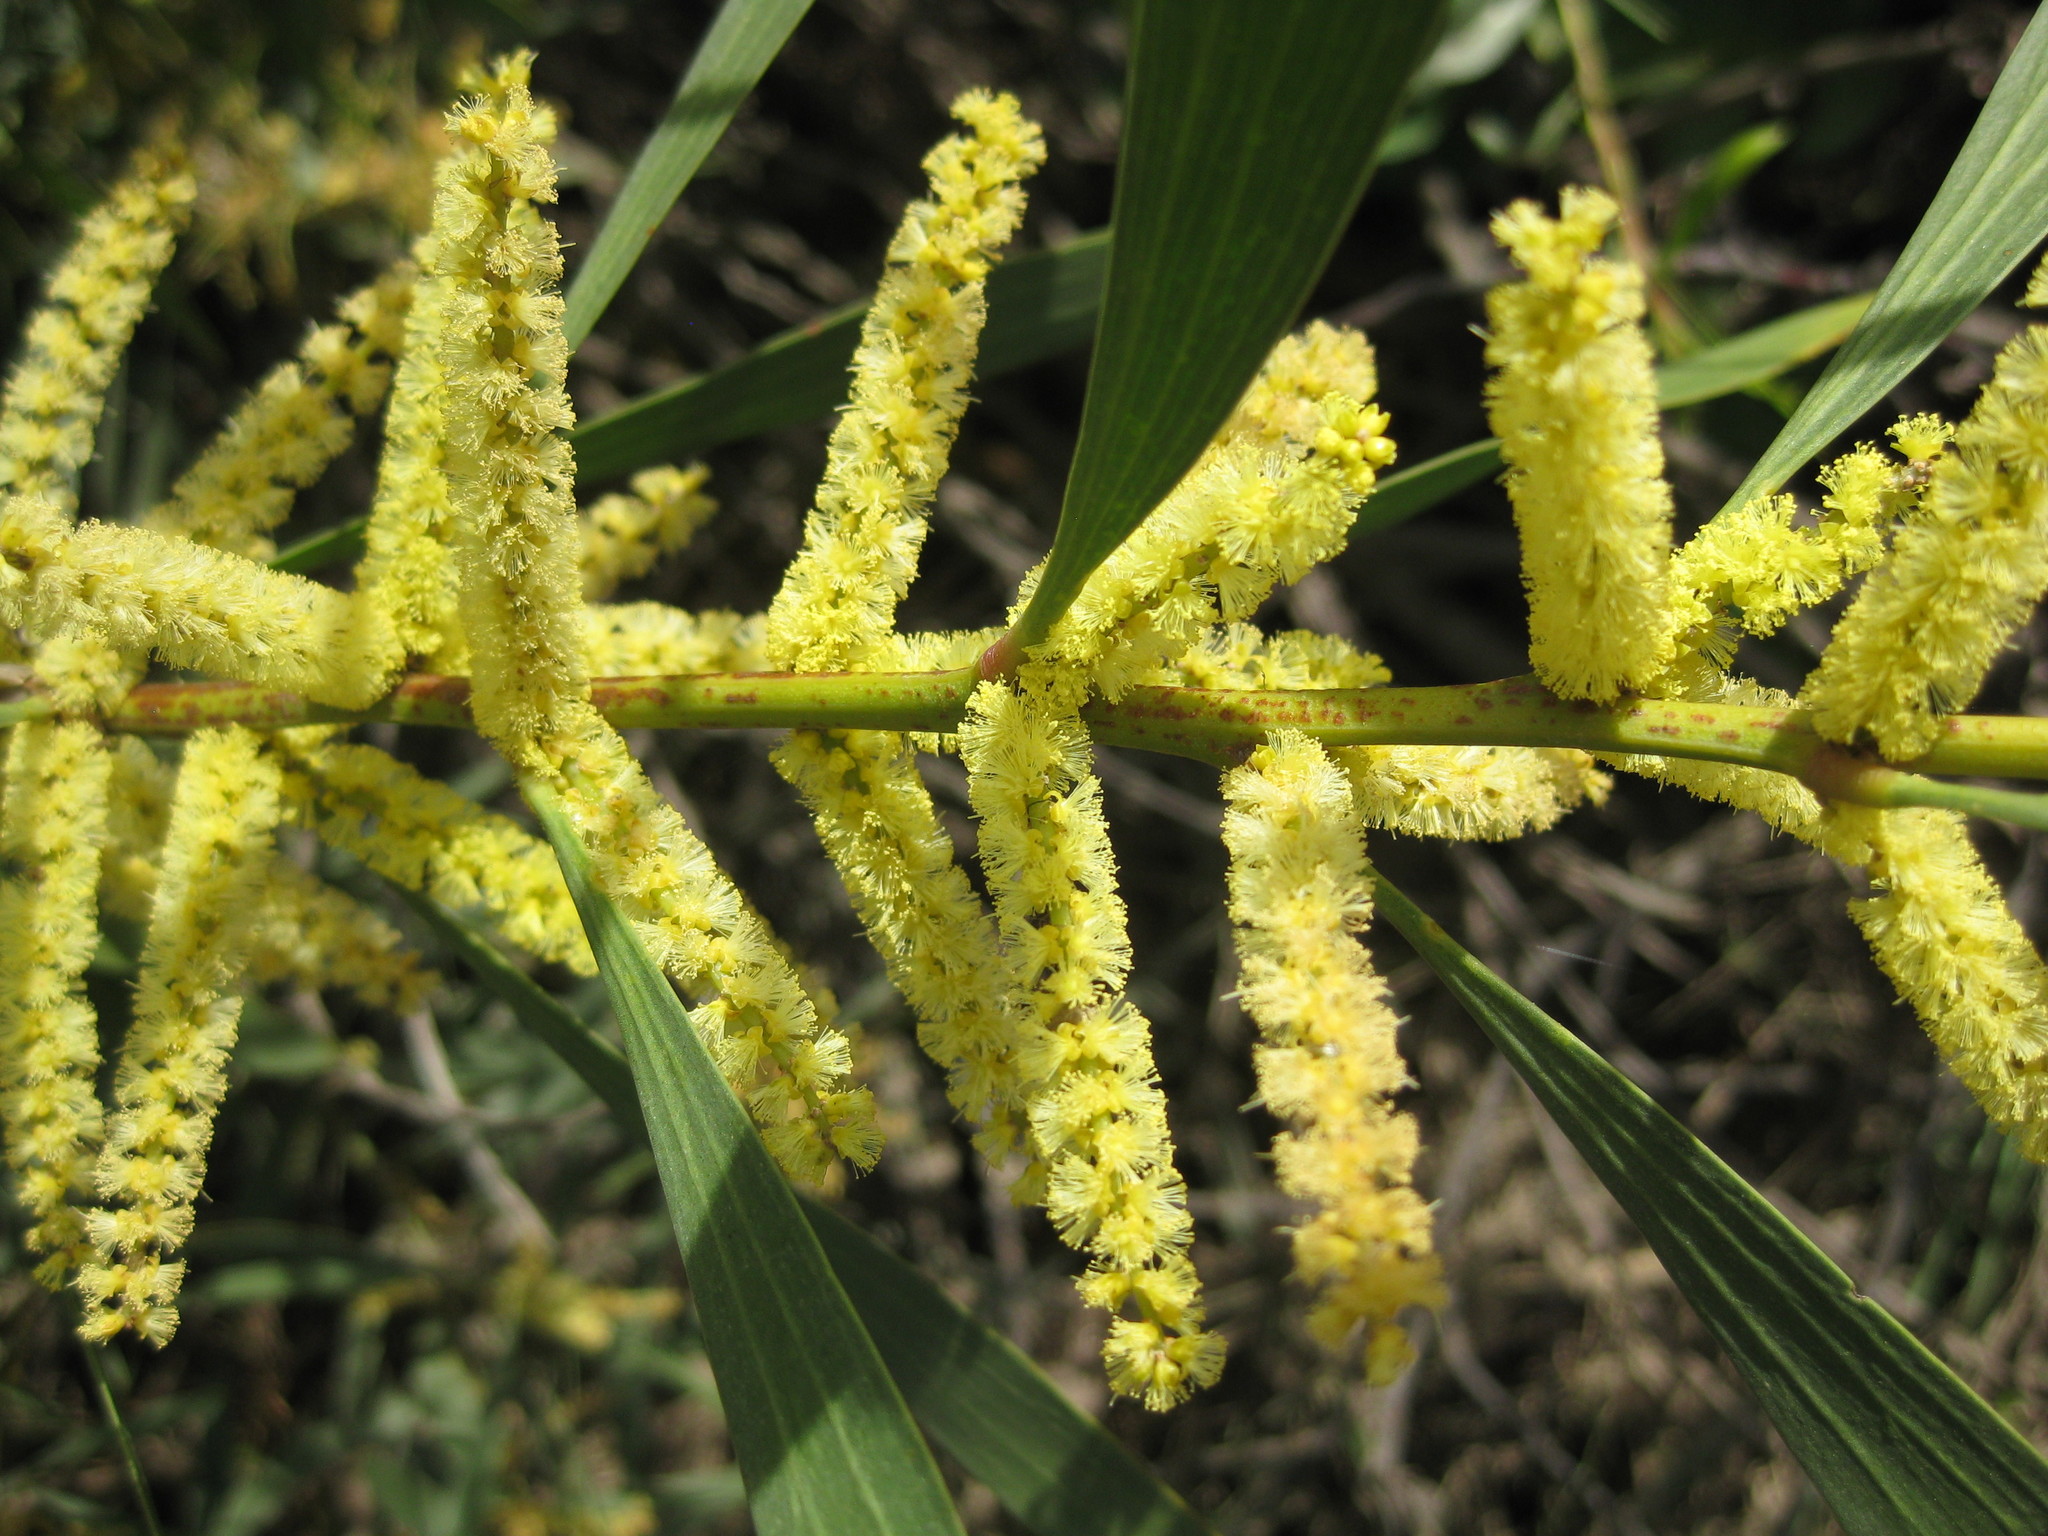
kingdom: Plantae
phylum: Tracheophyta
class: Magnoliopsida
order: Fabales
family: Fabaceae
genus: Acacia
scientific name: Acacia longifolia
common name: Sydney golden wattle
